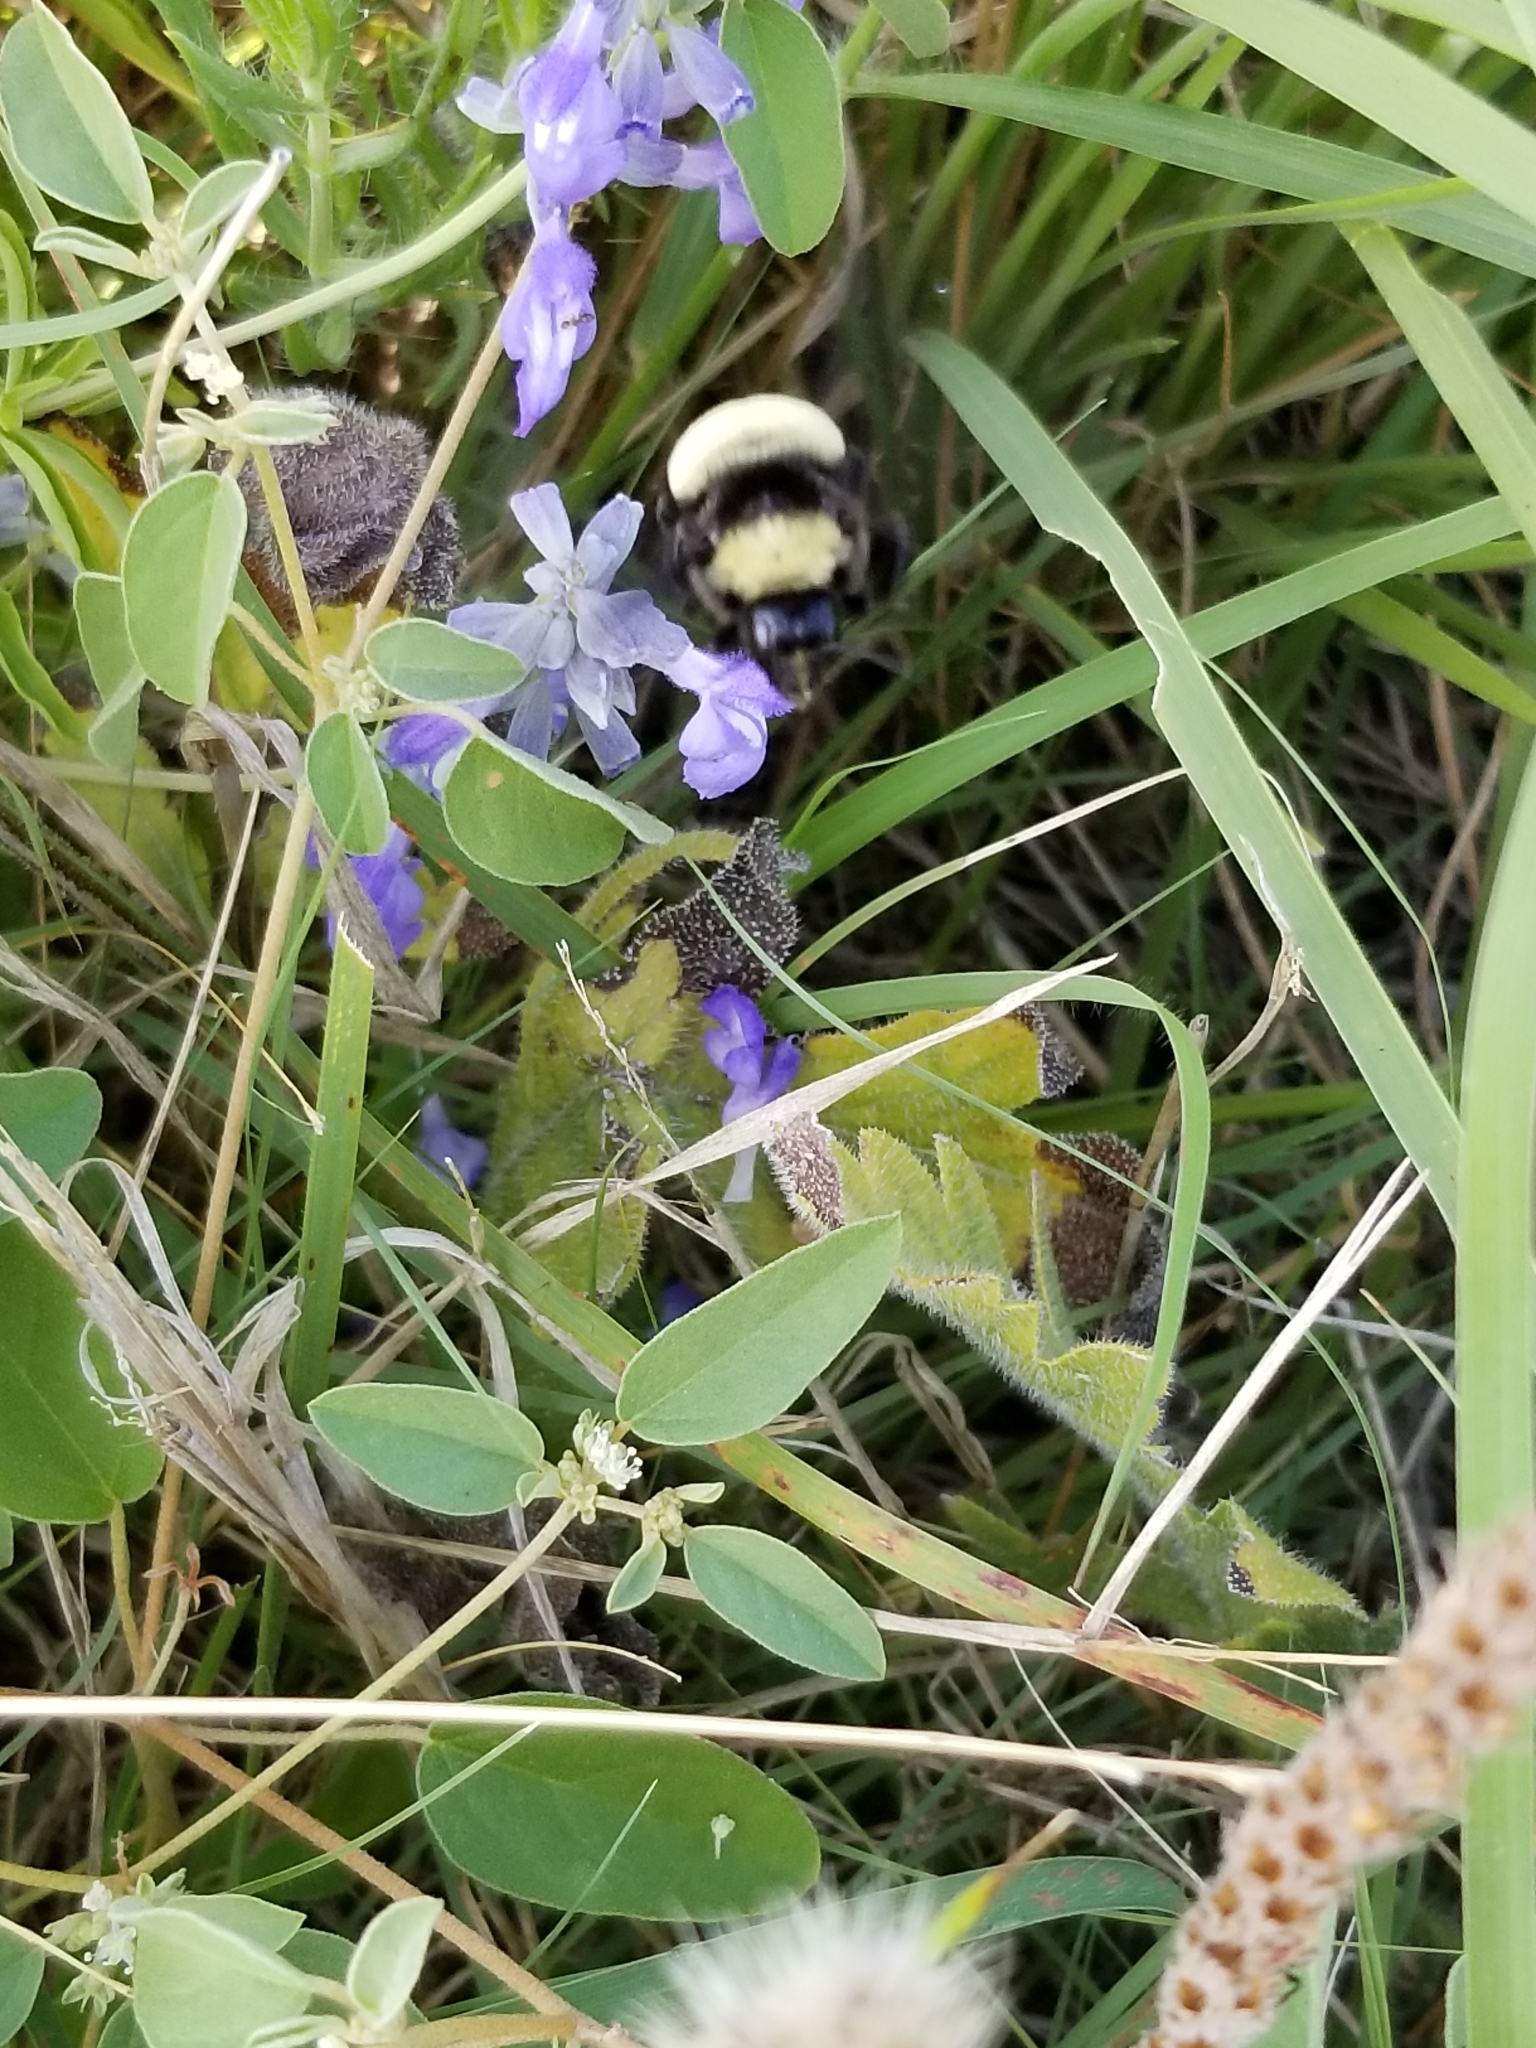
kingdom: Animalia
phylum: Arthropoda
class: Insecta
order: Hymenoptera
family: Apidae
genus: Bombus
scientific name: Bombus pensylvanicus
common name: Bumble bee
